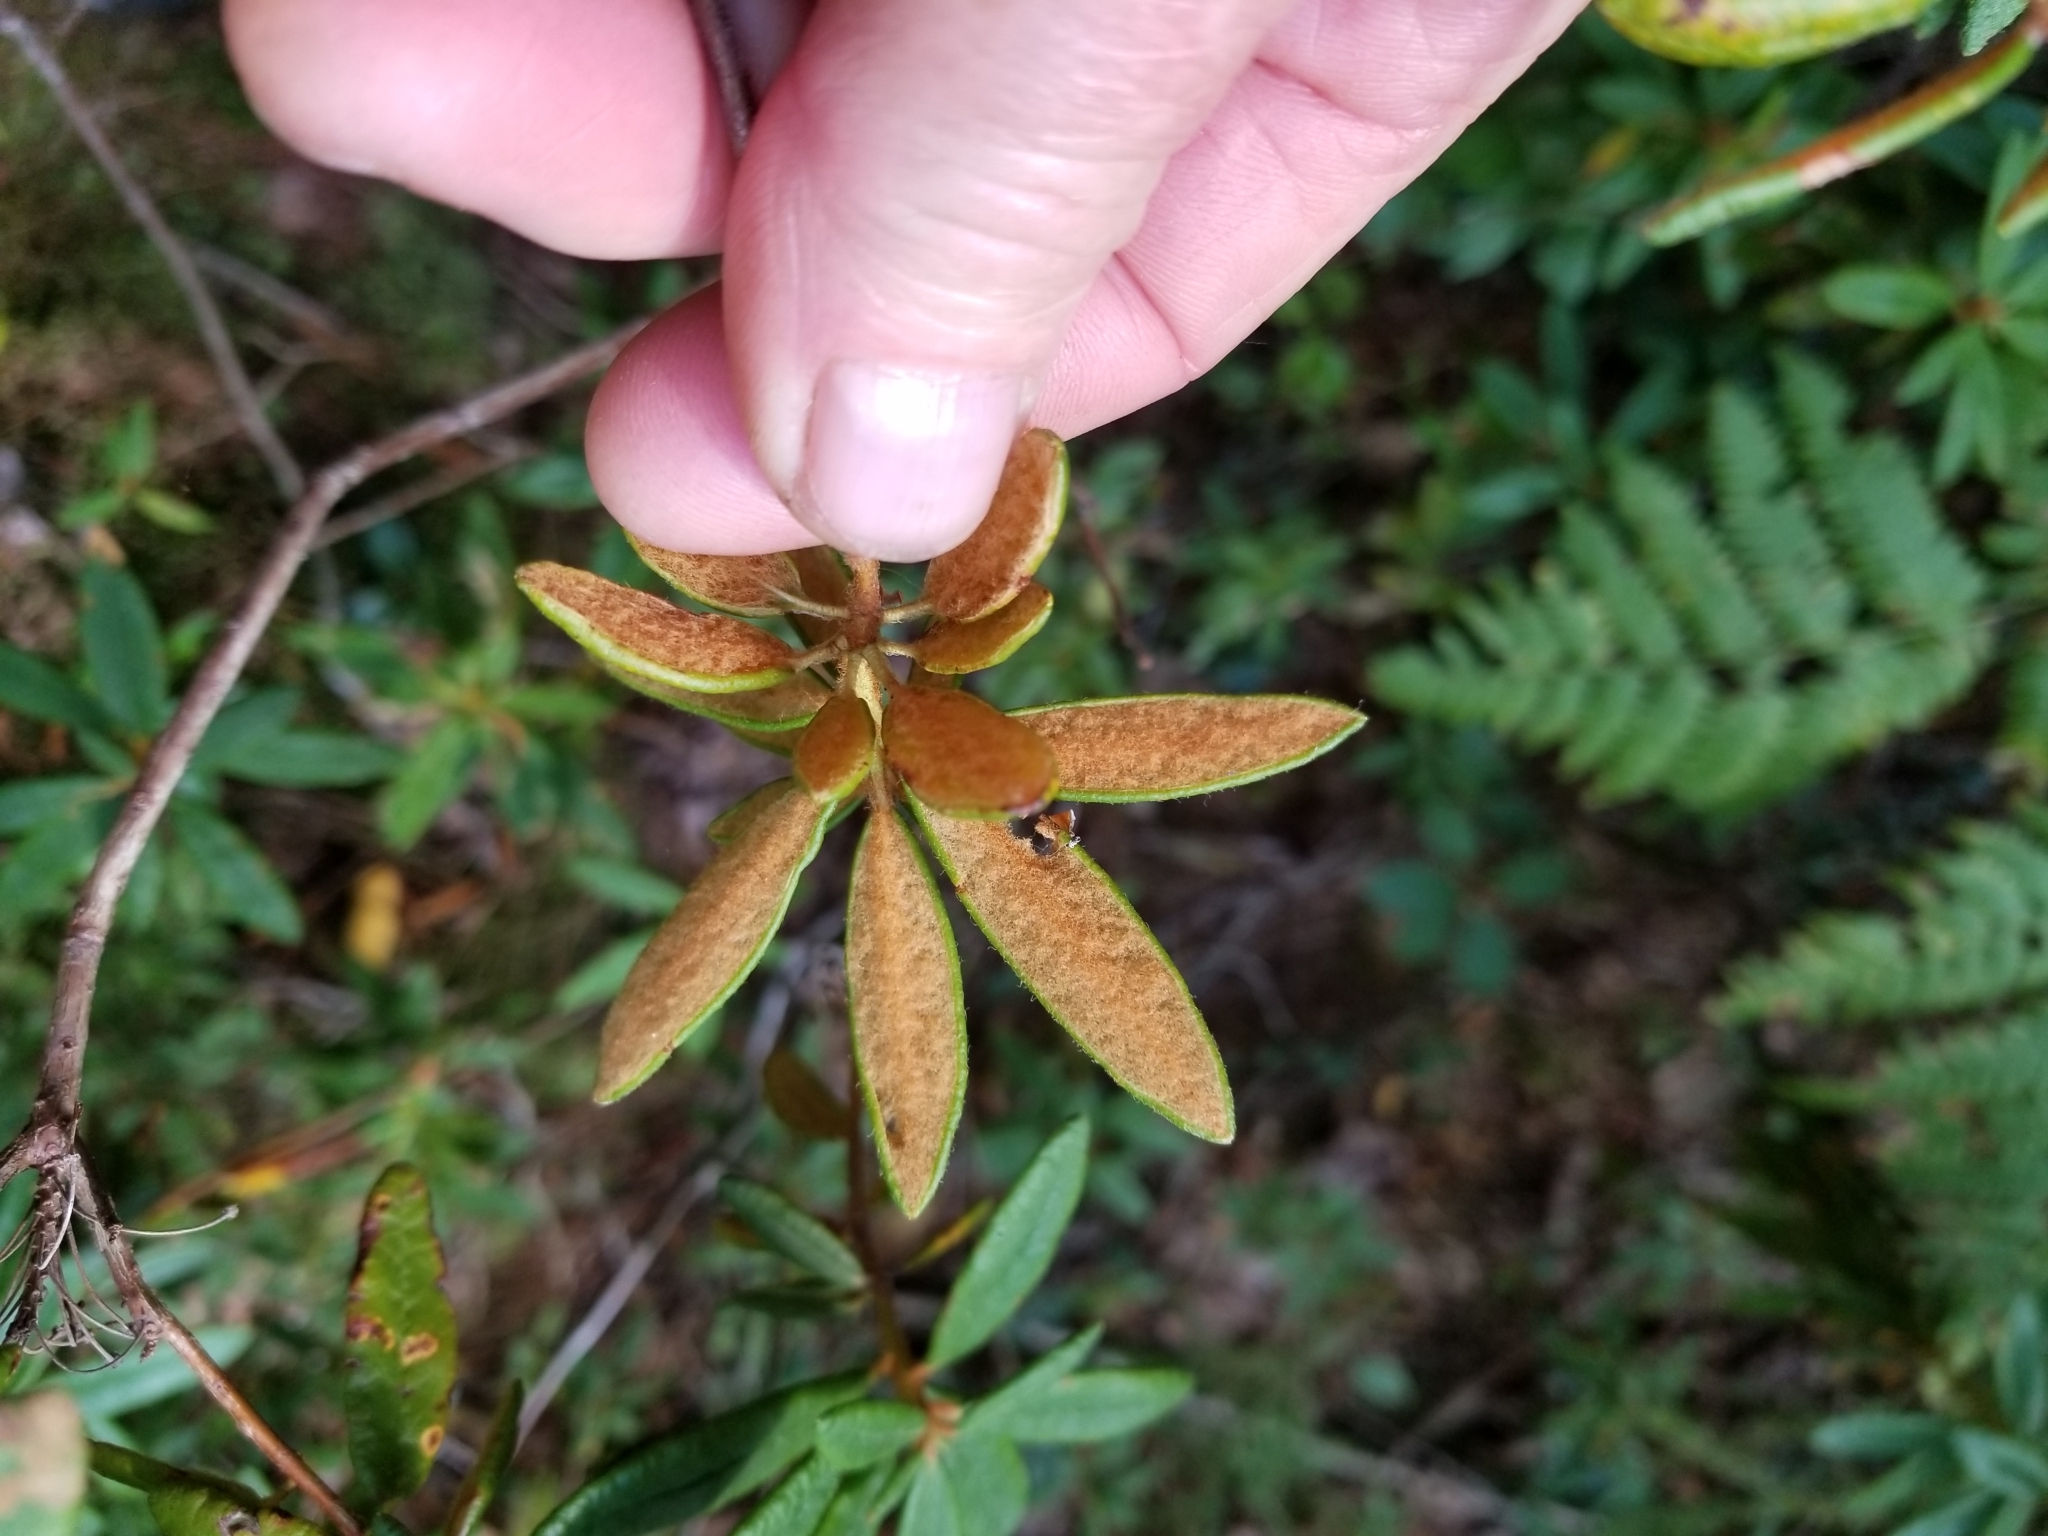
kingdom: Plantae
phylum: Tracheophyta
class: Magnoliopsida
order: Ericales
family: Ericaceae
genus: Rhododendron
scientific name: Rhododendron groenlandicum
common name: Bog labrador tea
